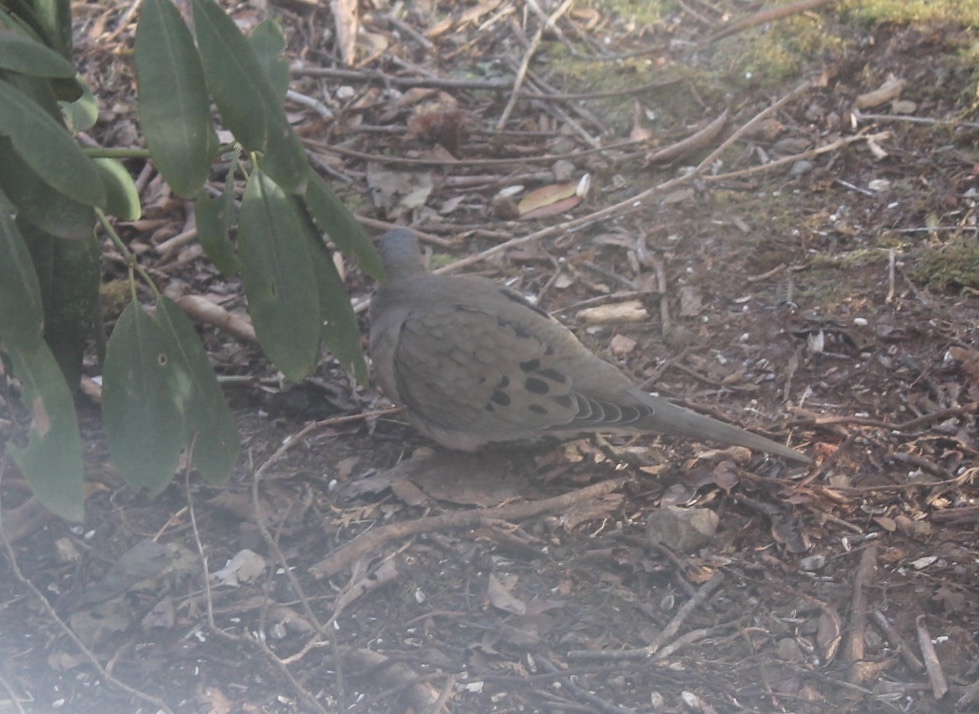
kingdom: Animalia
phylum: Chordata
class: Aves
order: Columbiformes
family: Columbidae
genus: Zenaida
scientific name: Zenaida macroura
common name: Mourning dove
